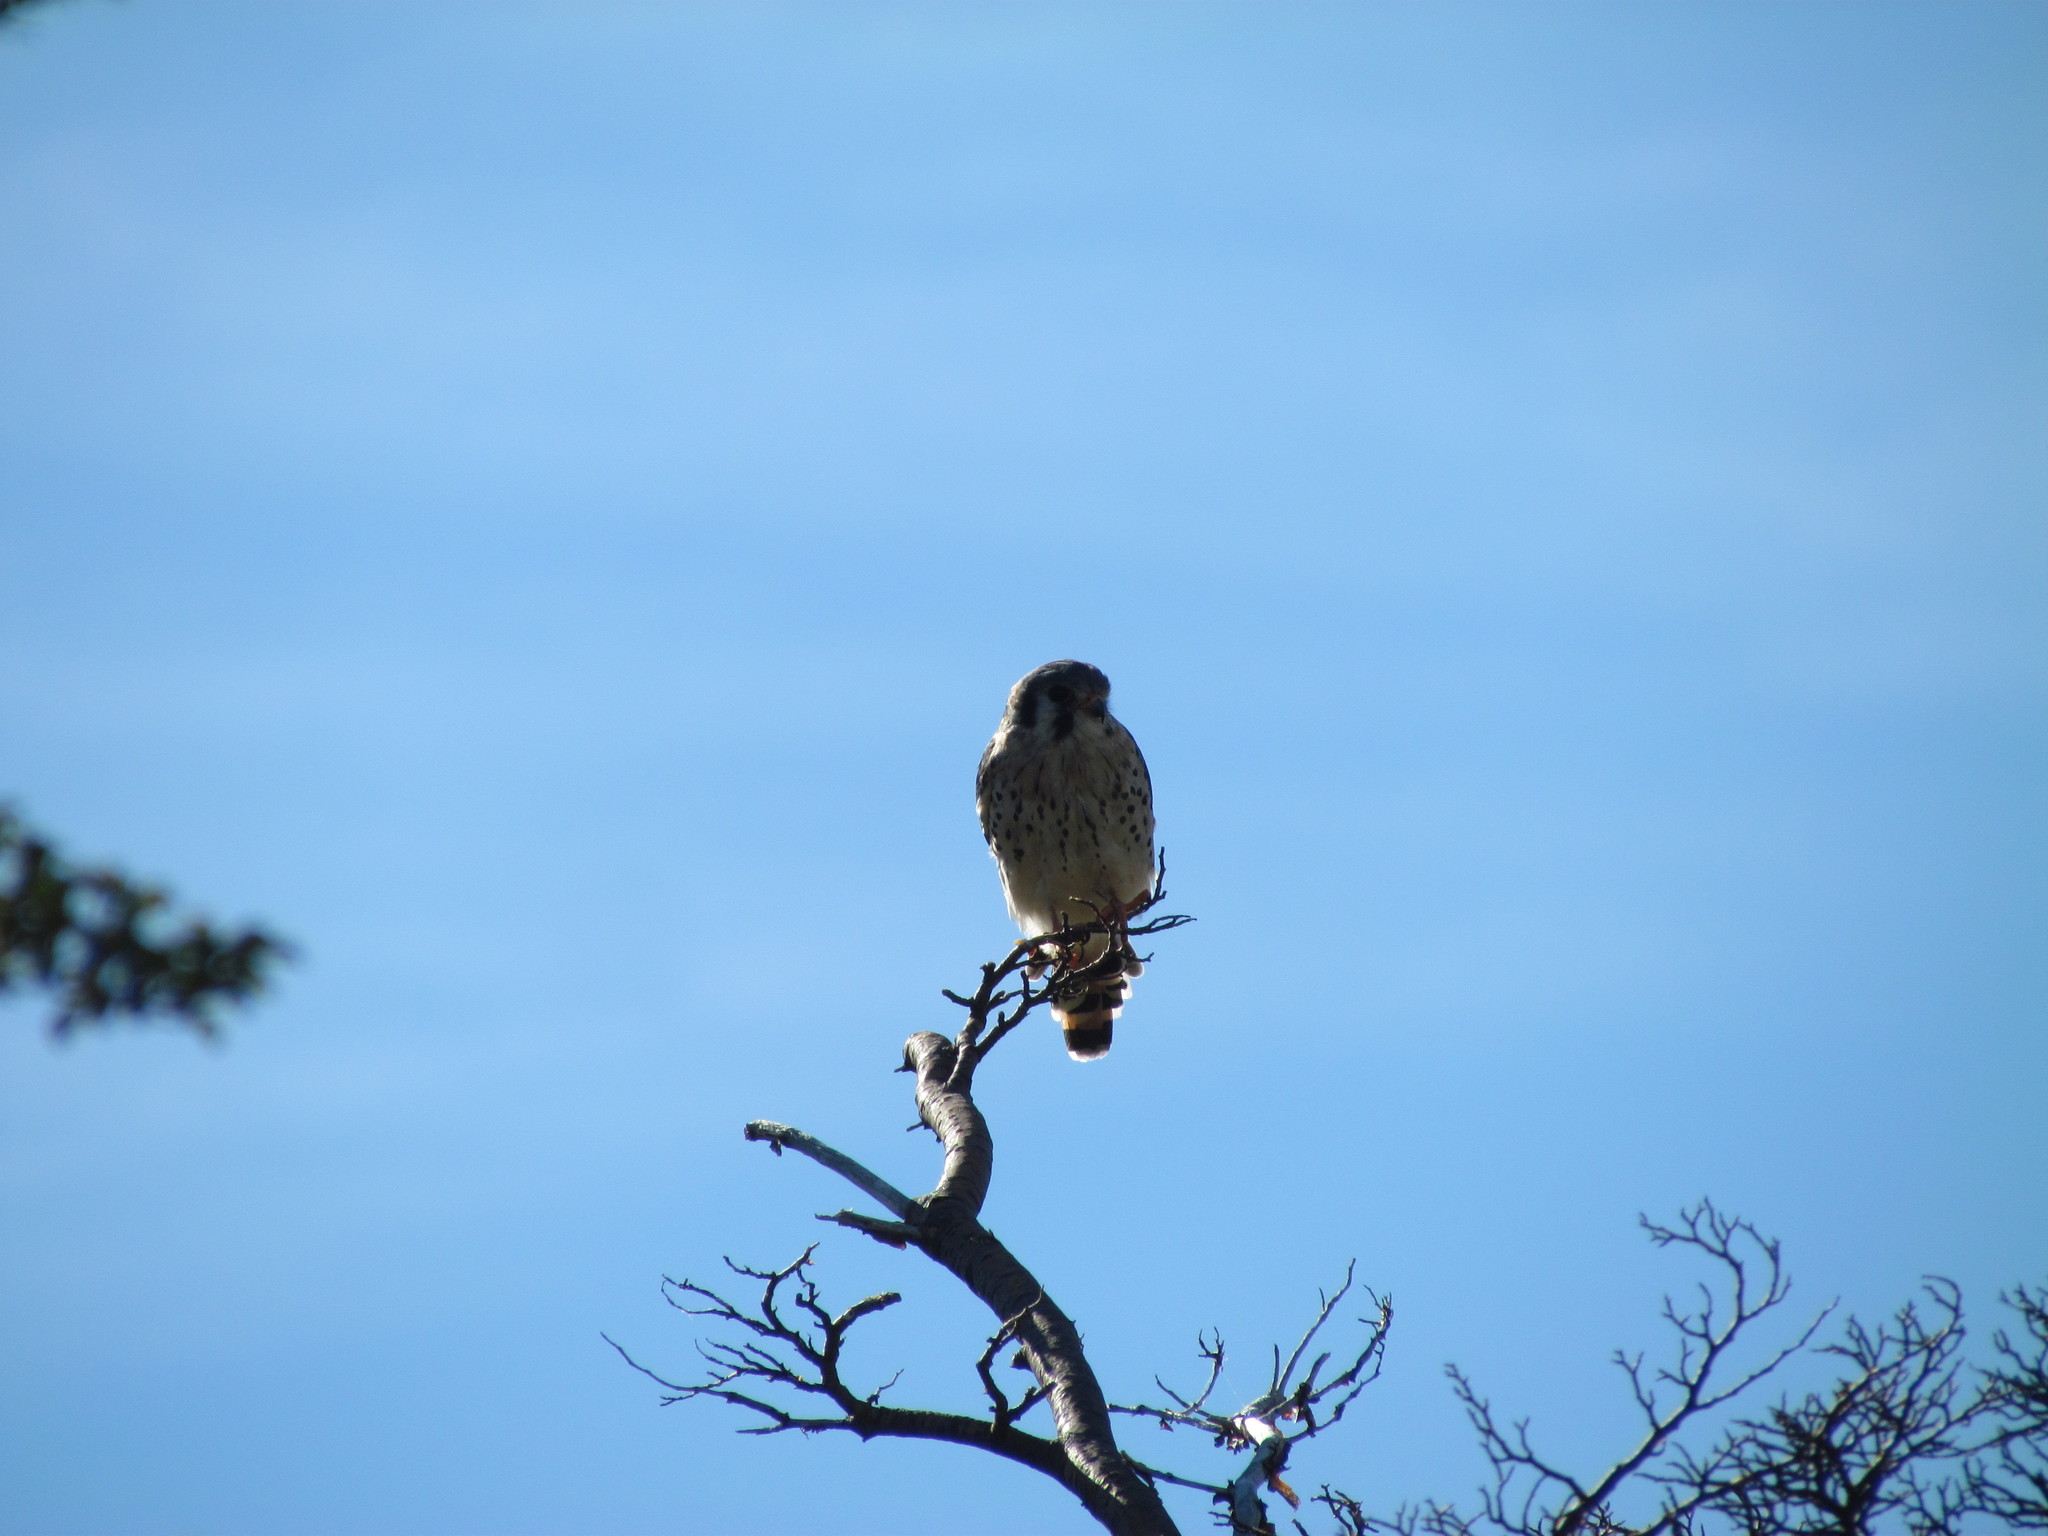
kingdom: Animalia
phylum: Chordata
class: Aves
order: Falconiformes
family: Falconidae
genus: Falco
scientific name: Falco sparverius
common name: American kestrel
